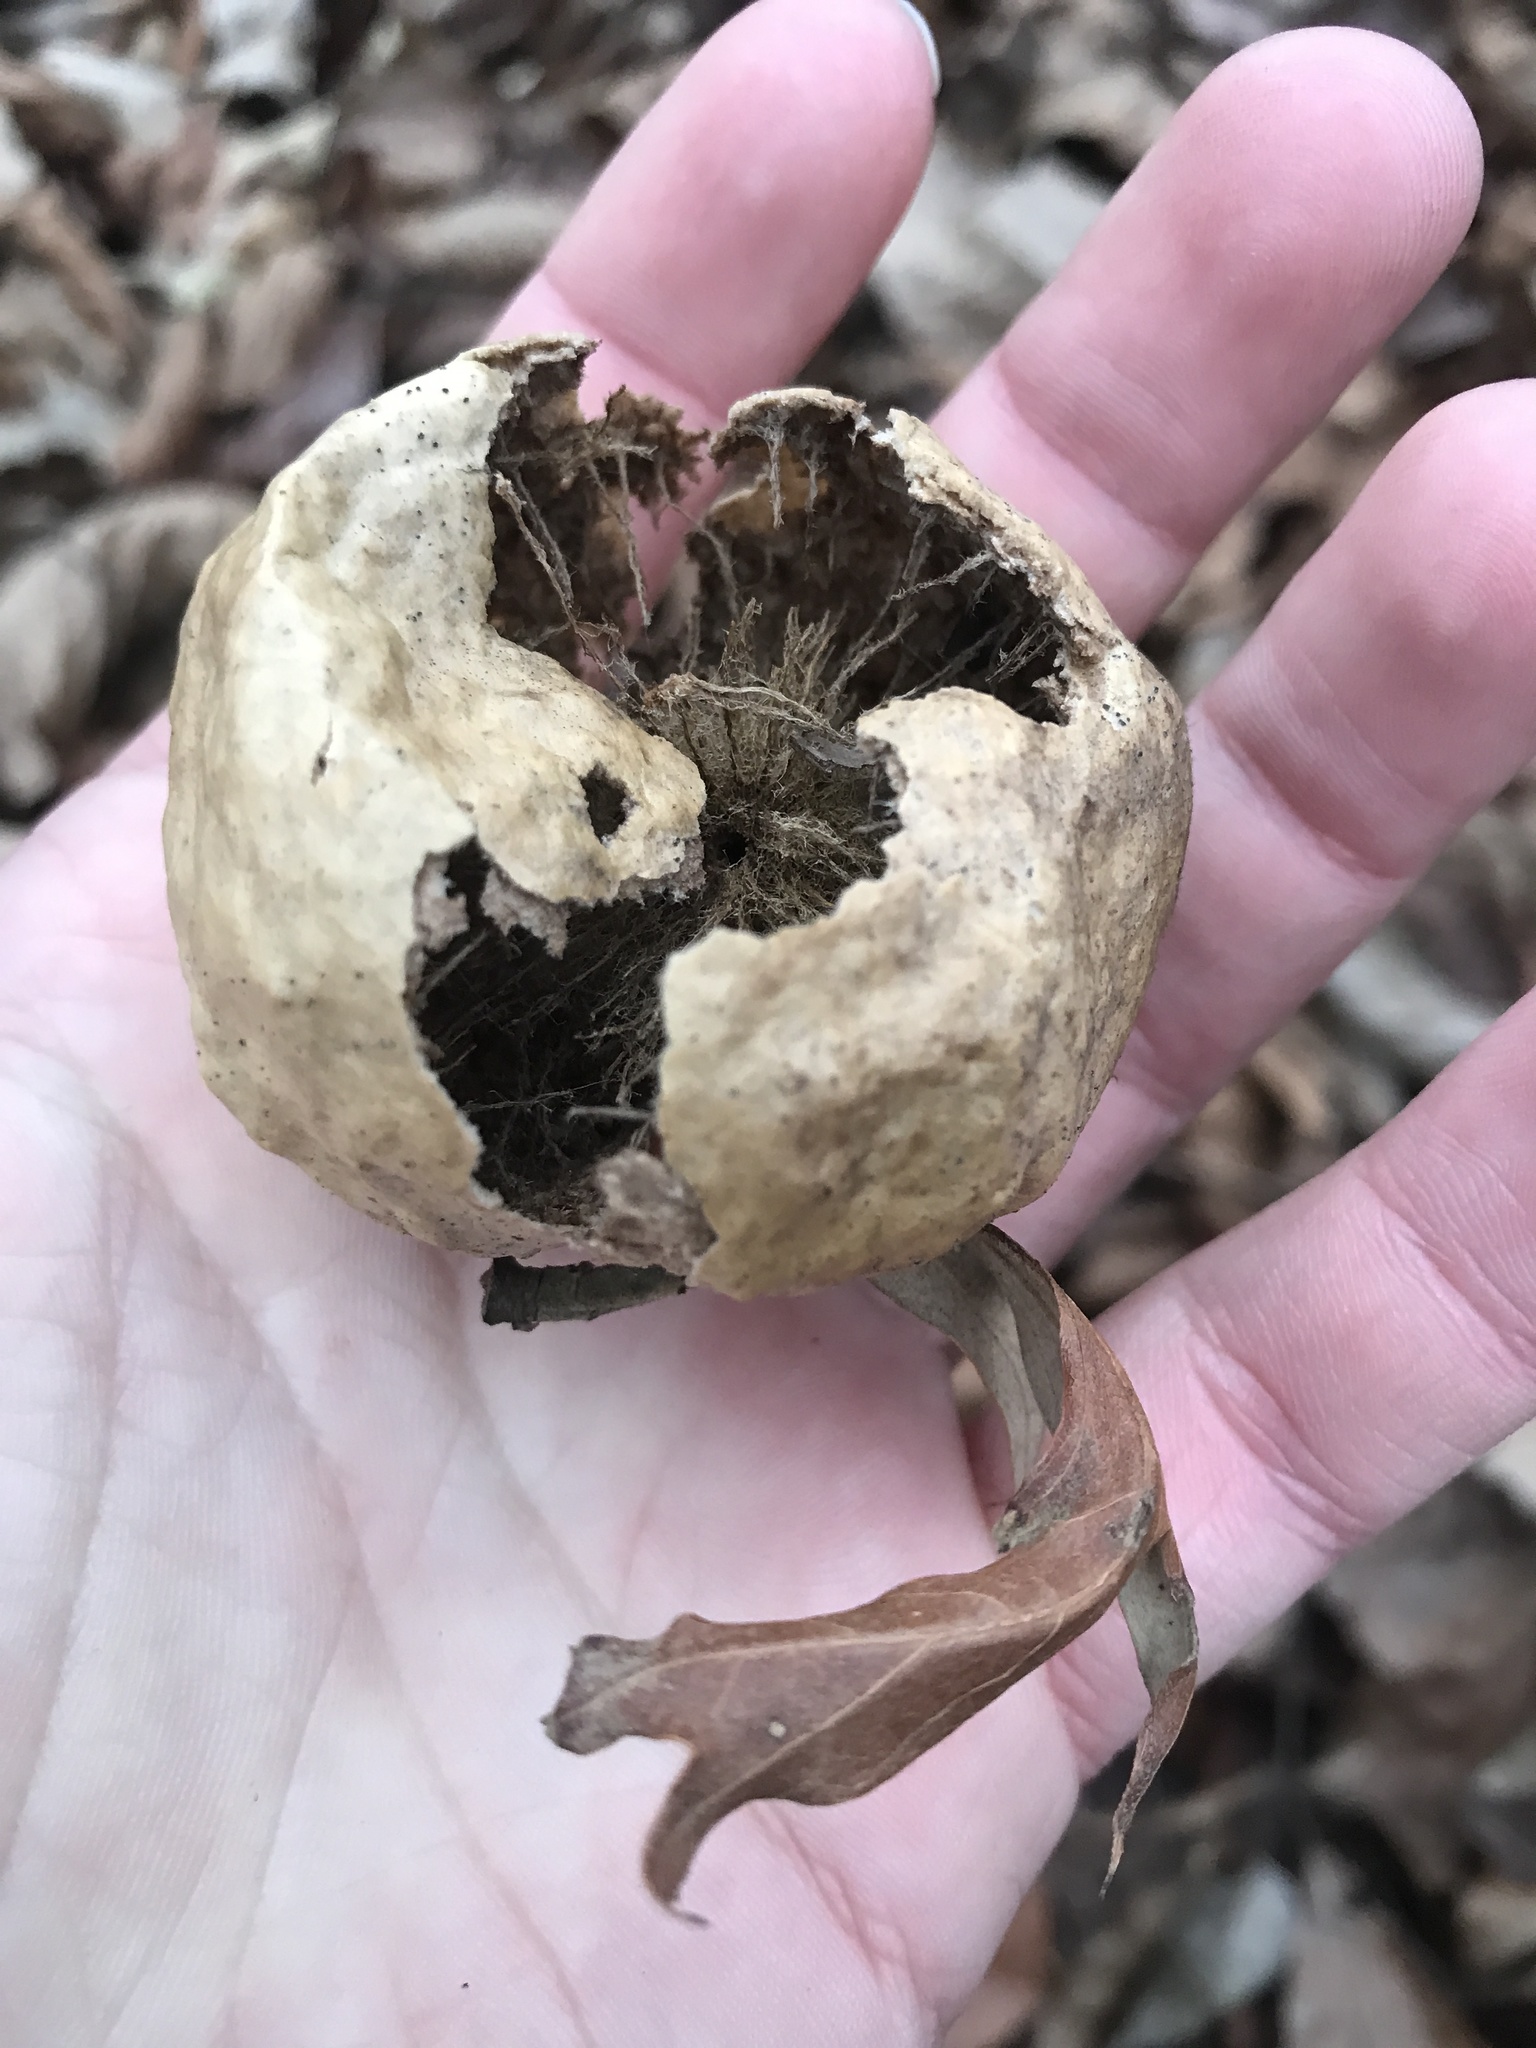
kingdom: Animalia
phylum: Arthropoda
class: Insecta
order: Hymenoptera
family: Cynipidae
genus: Amphibolips
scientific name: Amphibolips
